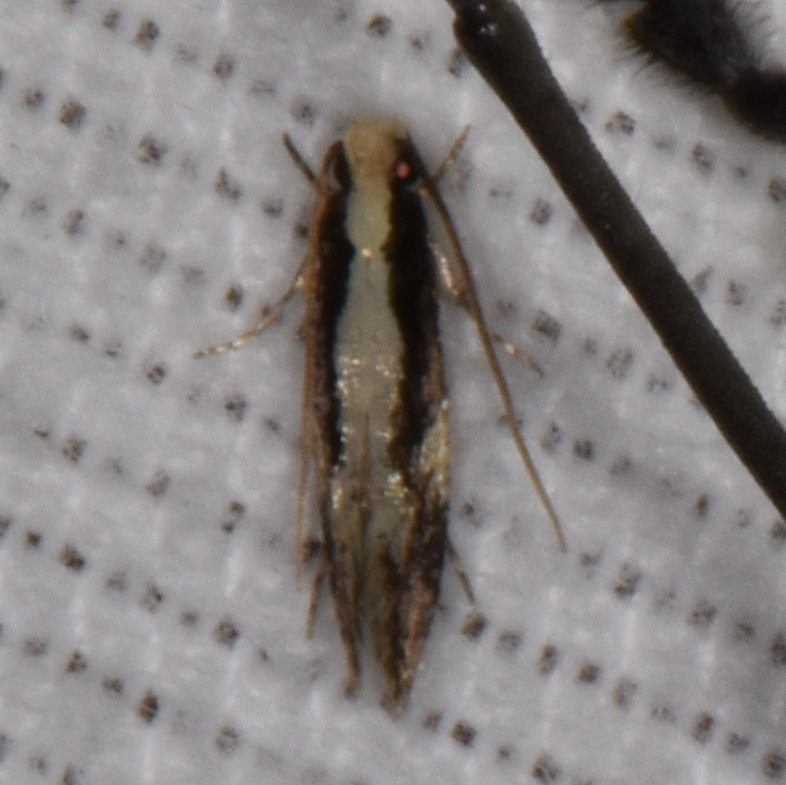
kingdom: Animalia
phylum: Arthropoda
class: Insecta
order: Lepidoptera
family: Tineidae
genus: Monopis
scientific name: Monopis crocicapitella
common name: Moth
